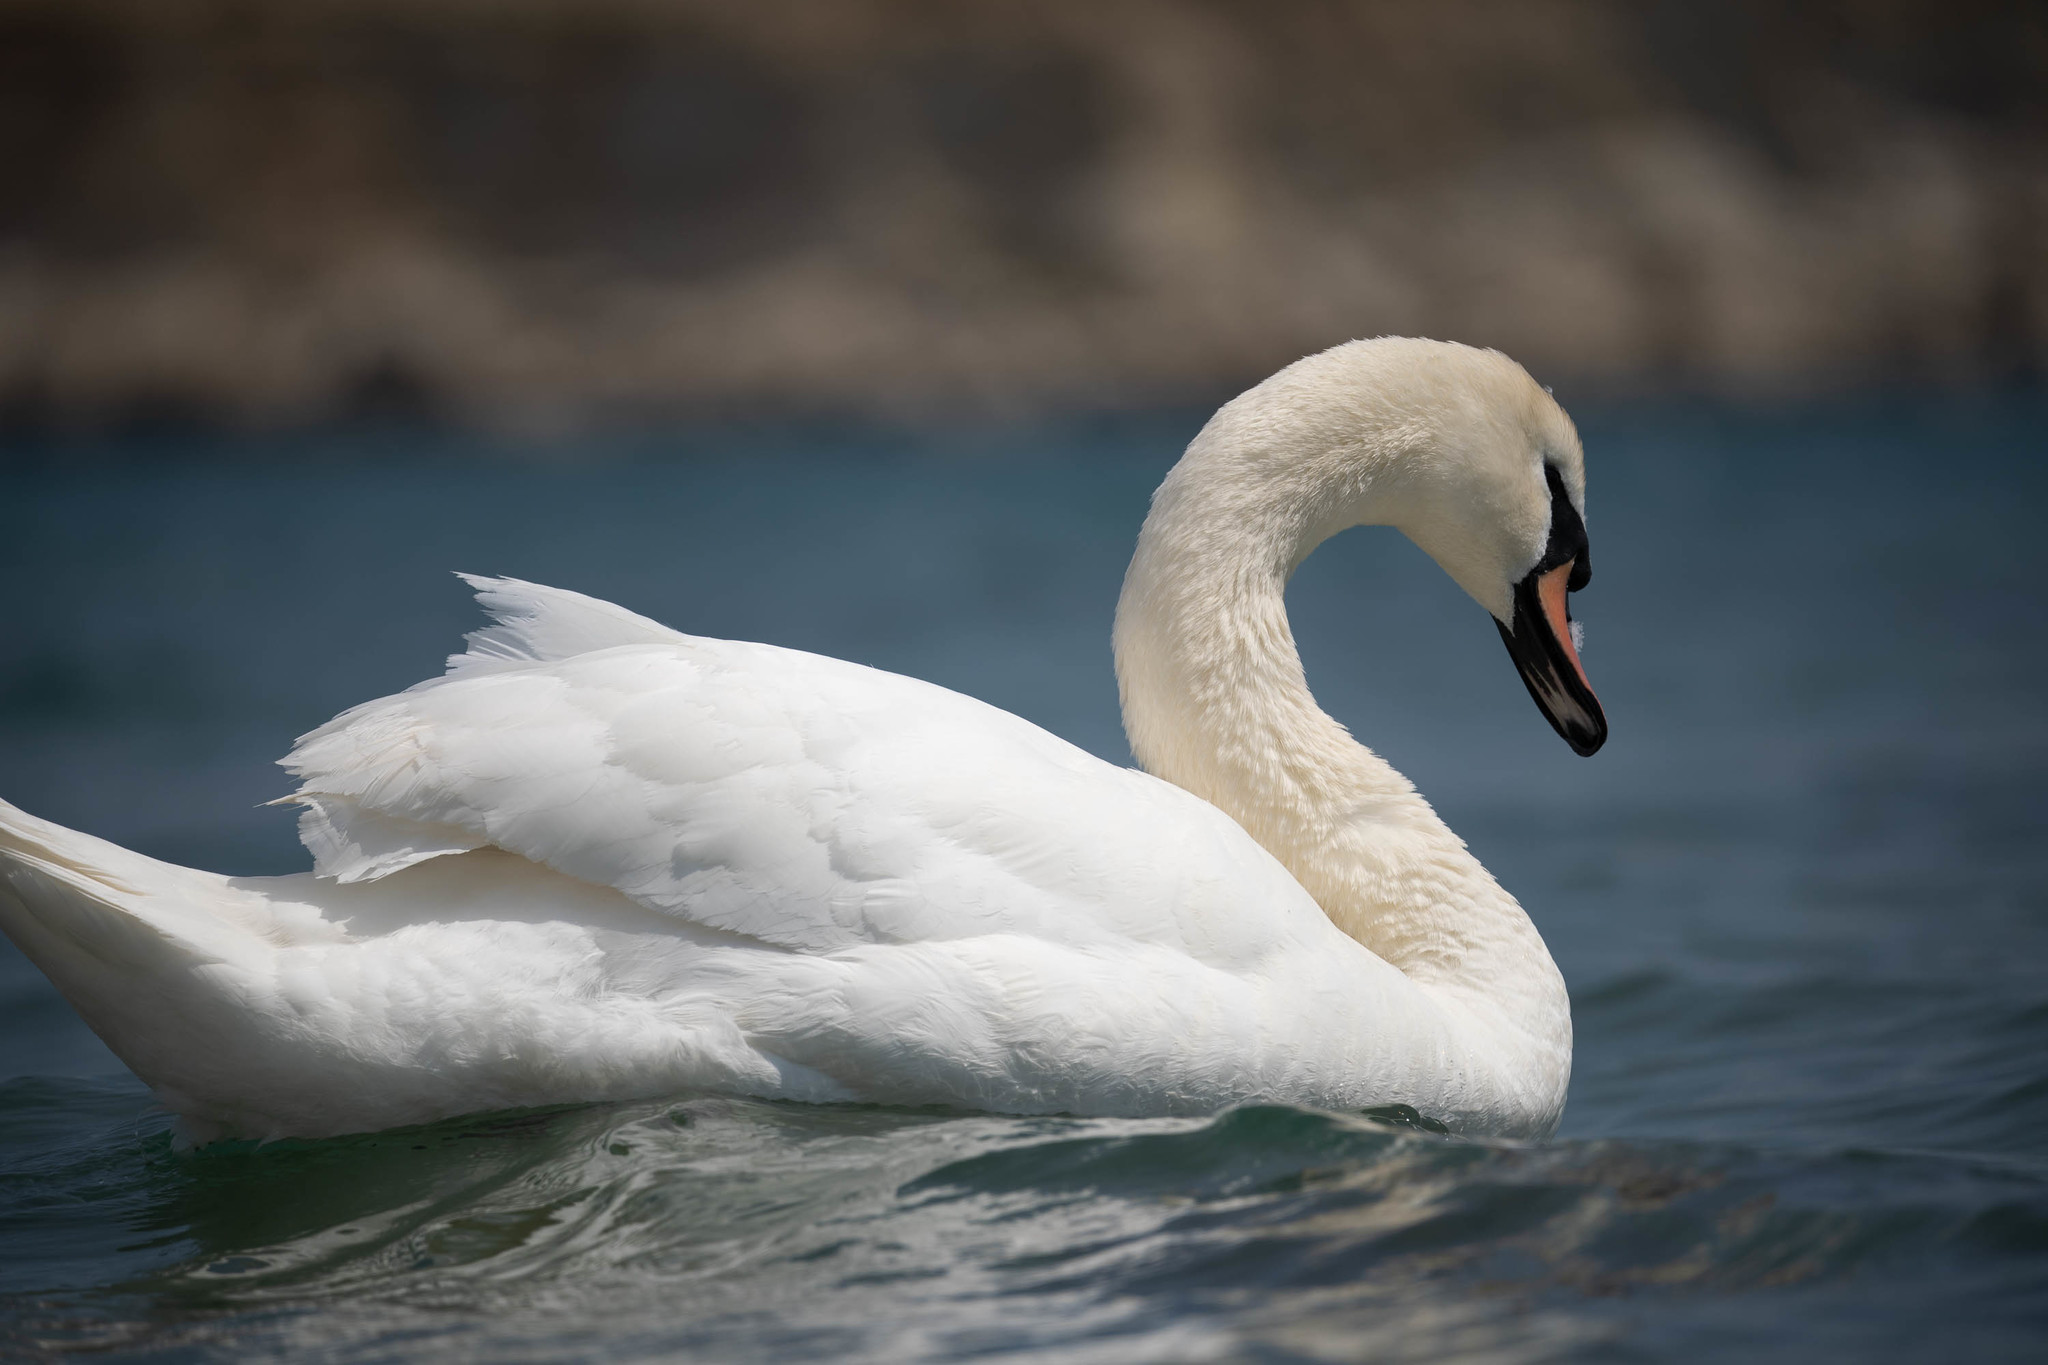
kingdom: Animalia
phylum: Chordata
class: Aves
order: Anseriformes
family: Anatidae
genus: Cygnus
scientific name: Cygnus olor
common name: Mute swan
